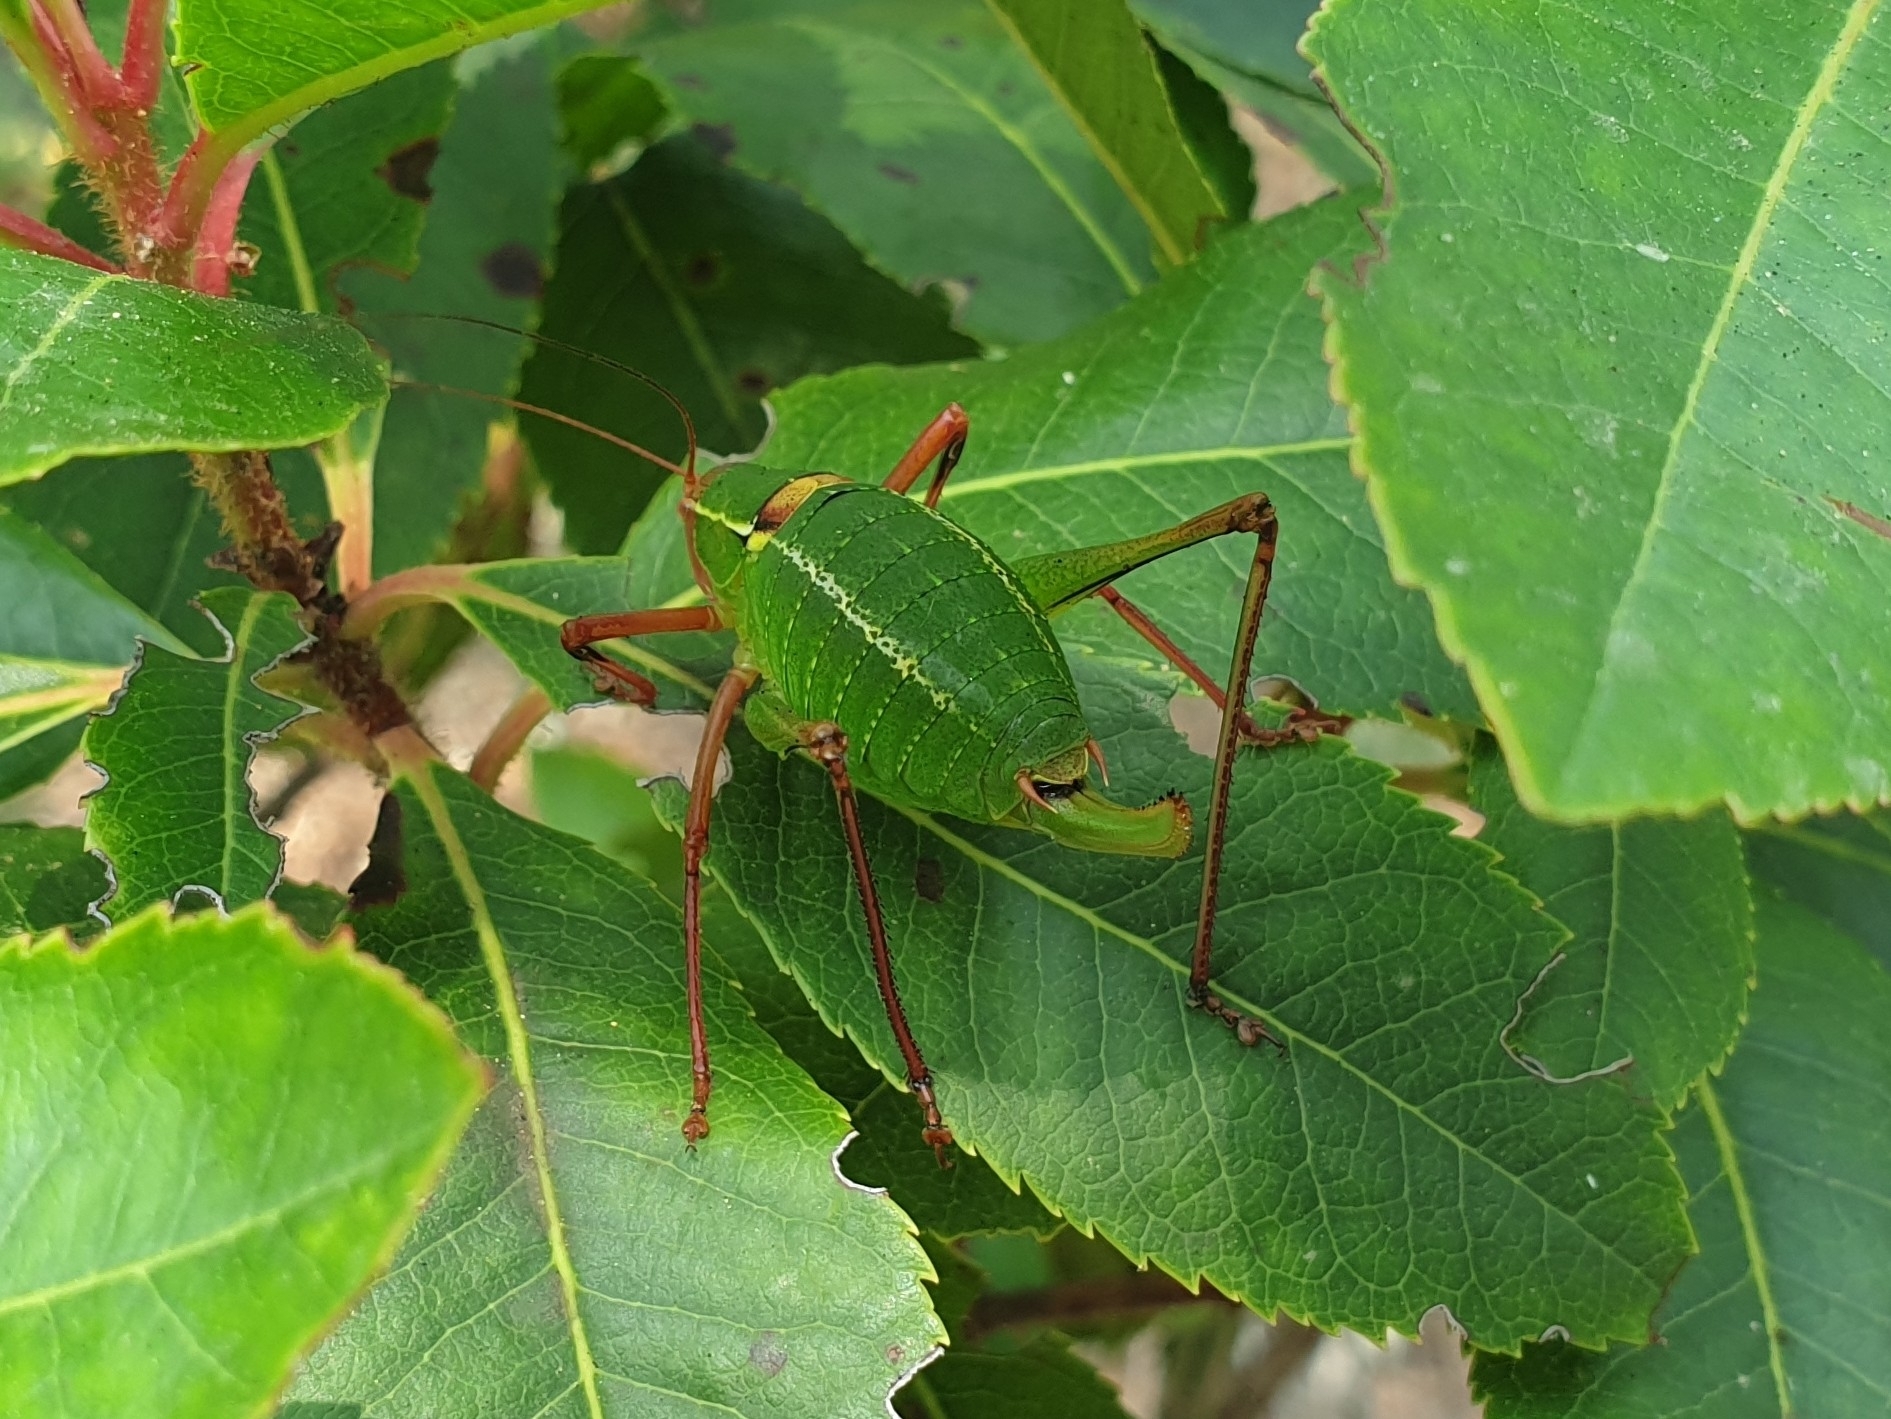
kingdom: Animalia
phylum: Arthropoda
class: Insecta
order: Orthoptera
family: Tettigoniidae
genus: Barbitistes
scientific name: Barbitistes fischeri
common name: Southern saw-tailed bush-cricket
